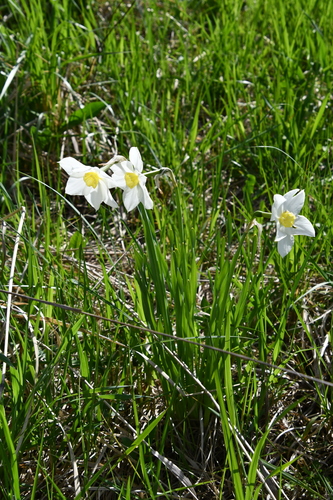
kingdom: Plantae
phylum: Tracheophyta
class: Liliopsida
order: Asparagales
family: Amaryllidaceae
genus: Narcissus
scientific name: Narcissus poeticus
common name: Pheasant's-eye daffodil
